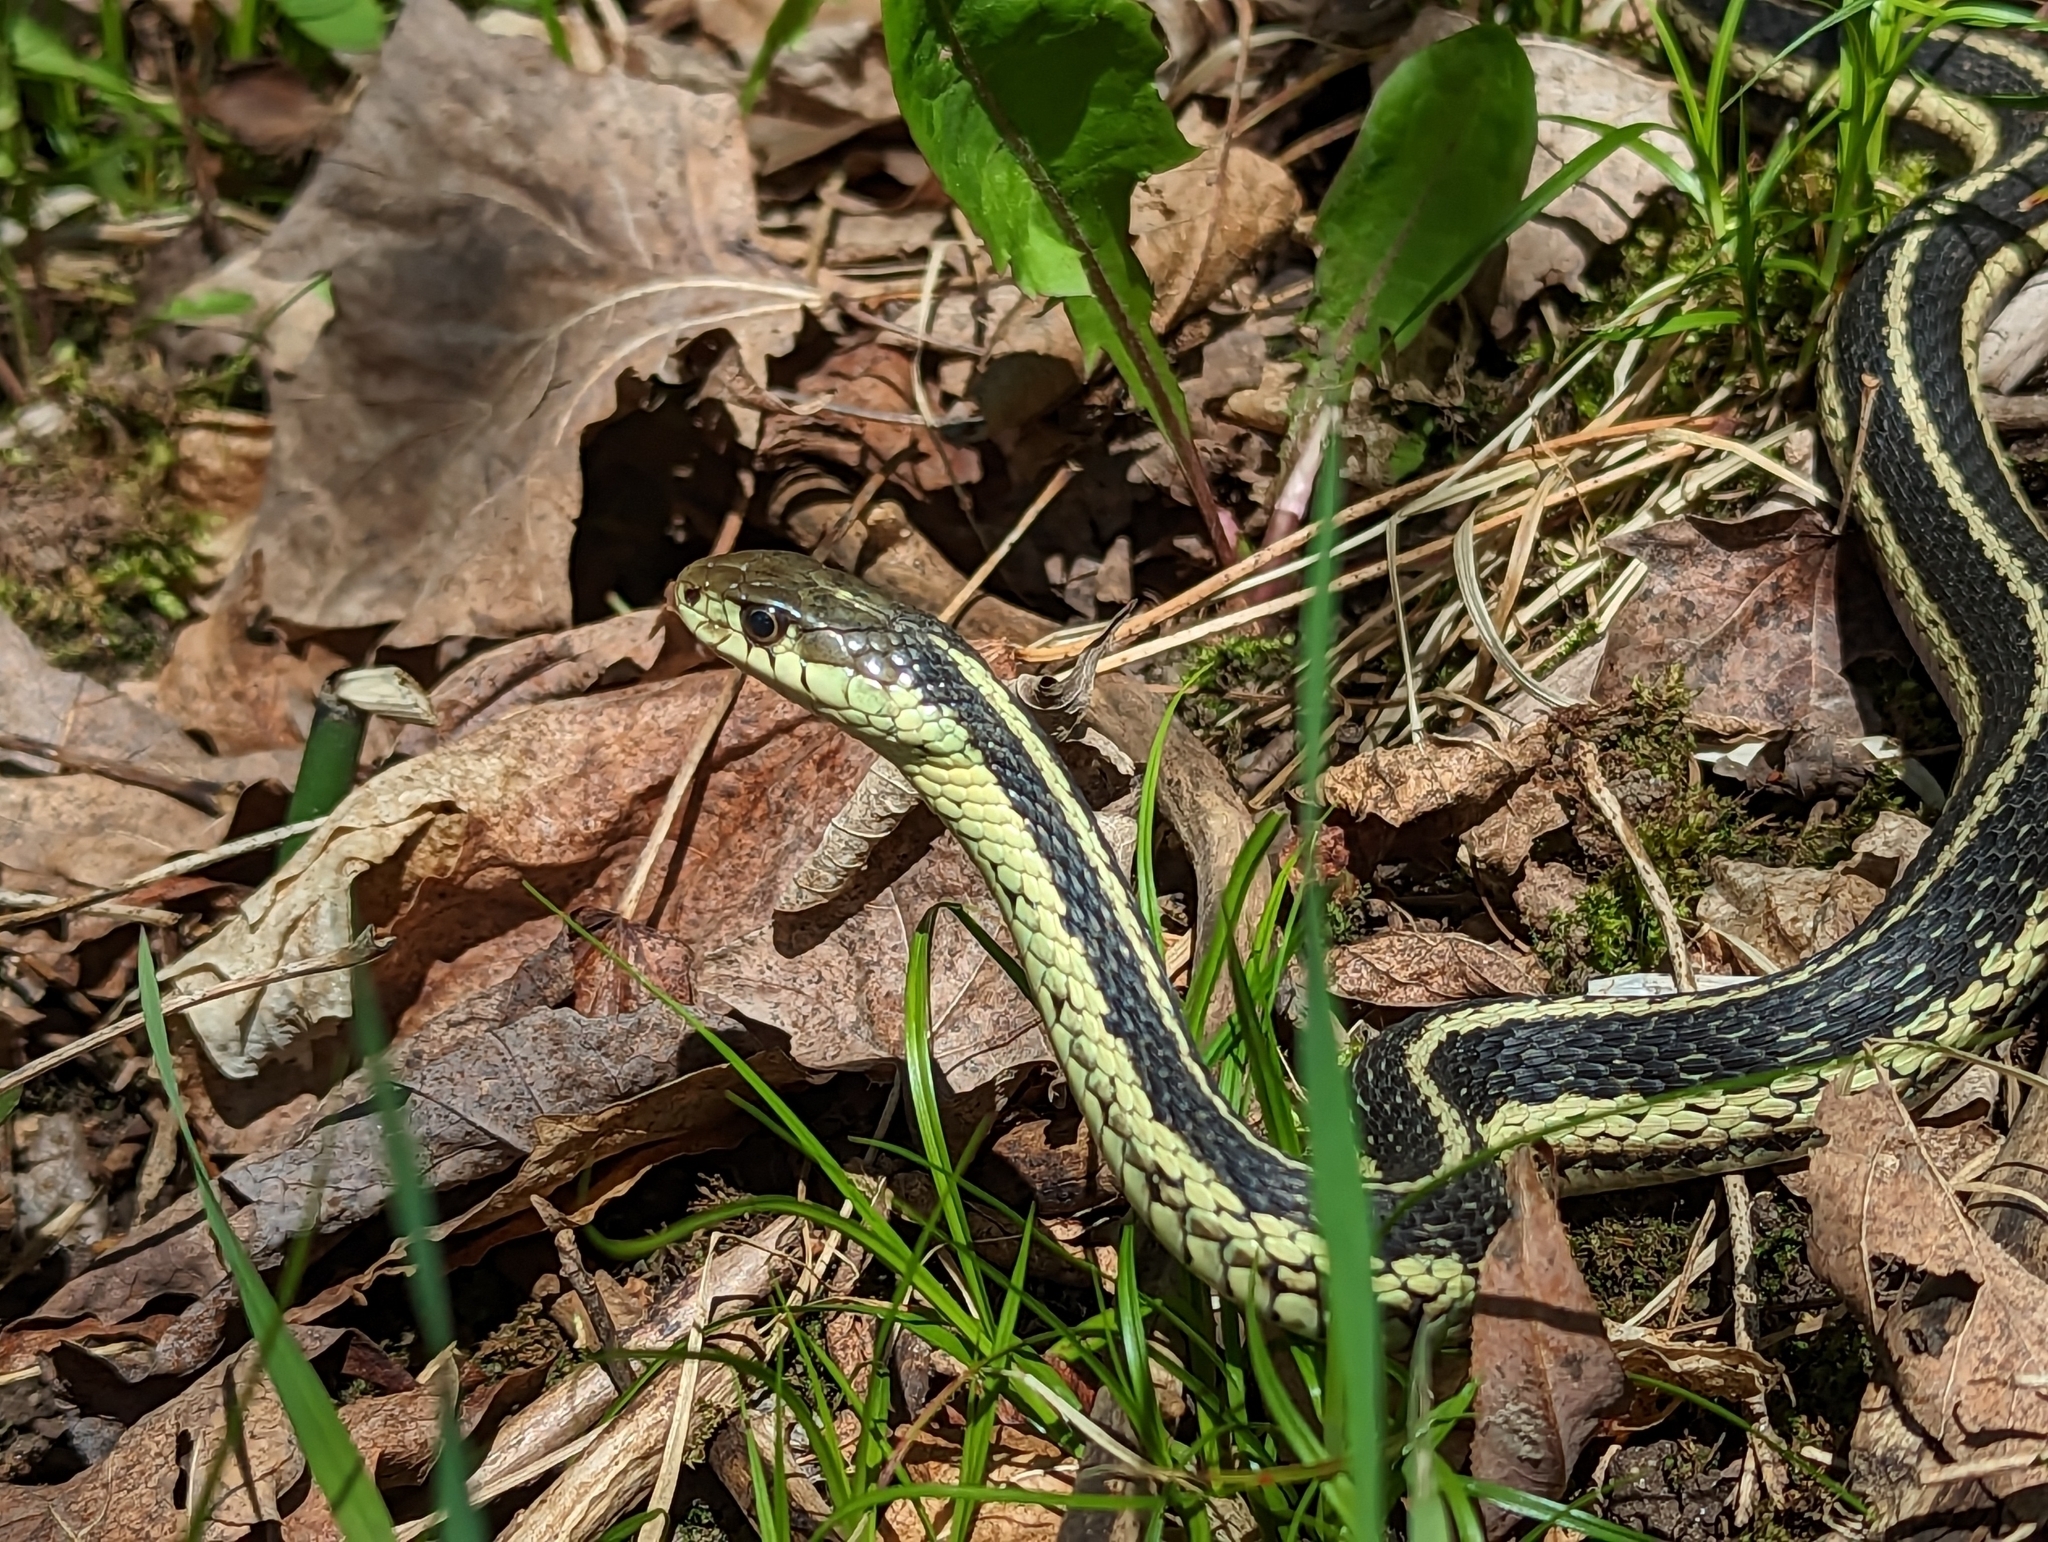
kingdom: Animalia
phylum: Chordata
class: Squamata
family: Colubridae
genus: Thamnophis
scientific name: Thamnophis sirtalis
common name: Common garter snake
